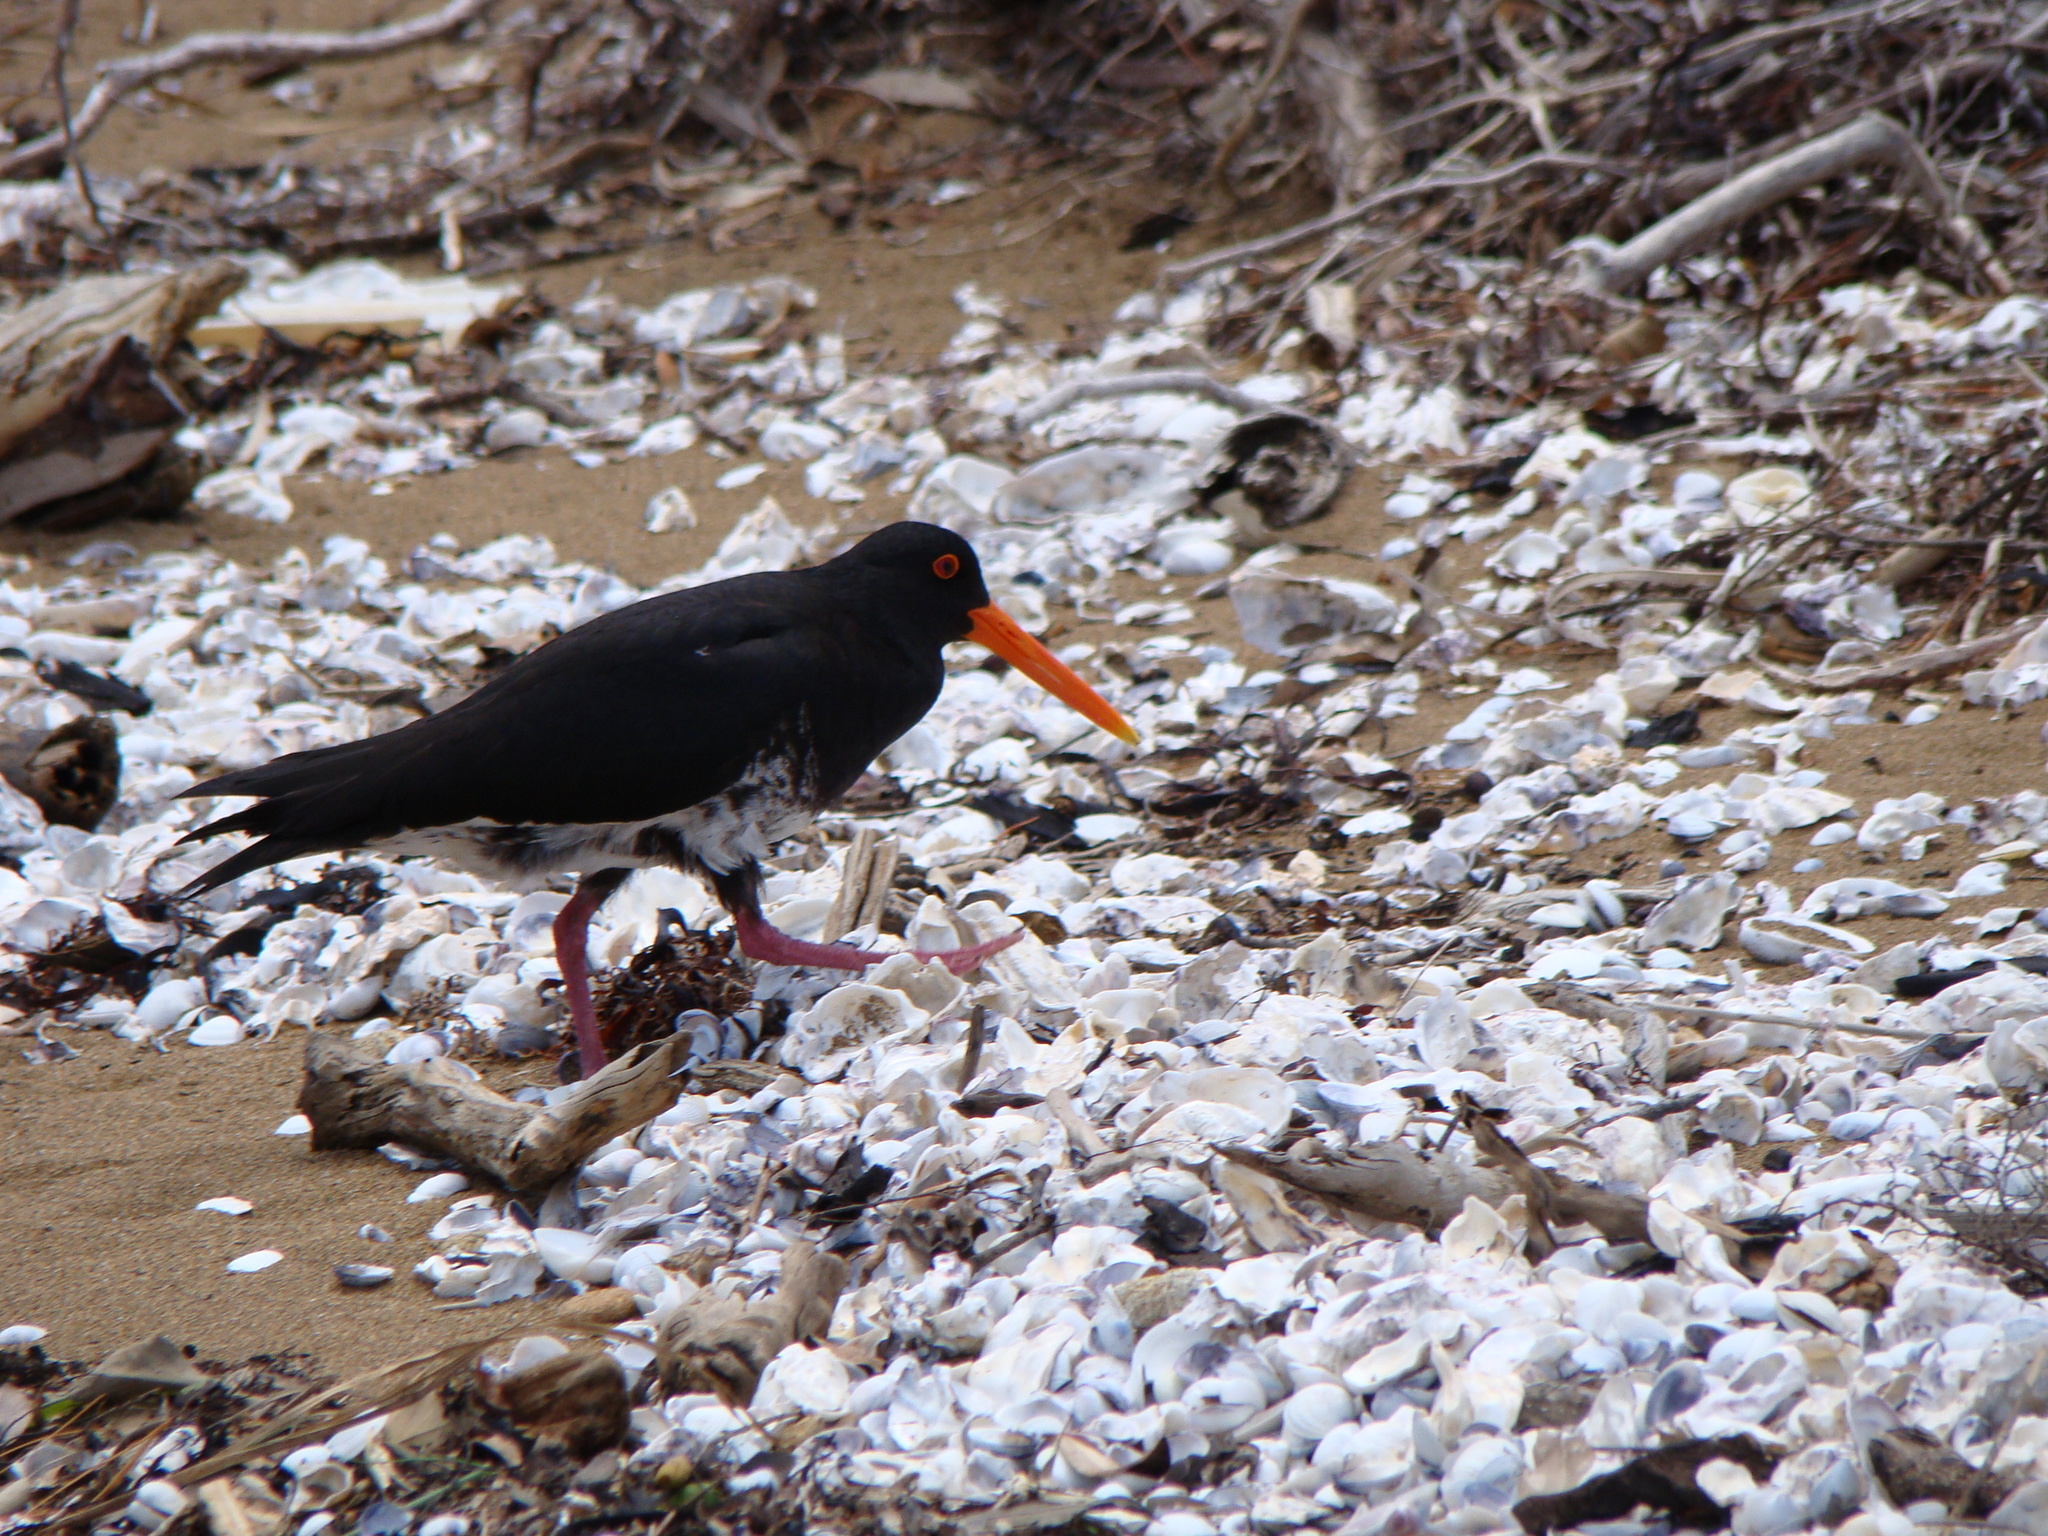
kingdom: Animalia
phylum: Chordata
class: Aves
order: Charadriiformes
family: Haematopodidae
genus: Haematopus
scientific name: Haematopus unicolor
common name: Variable oystercatcher
